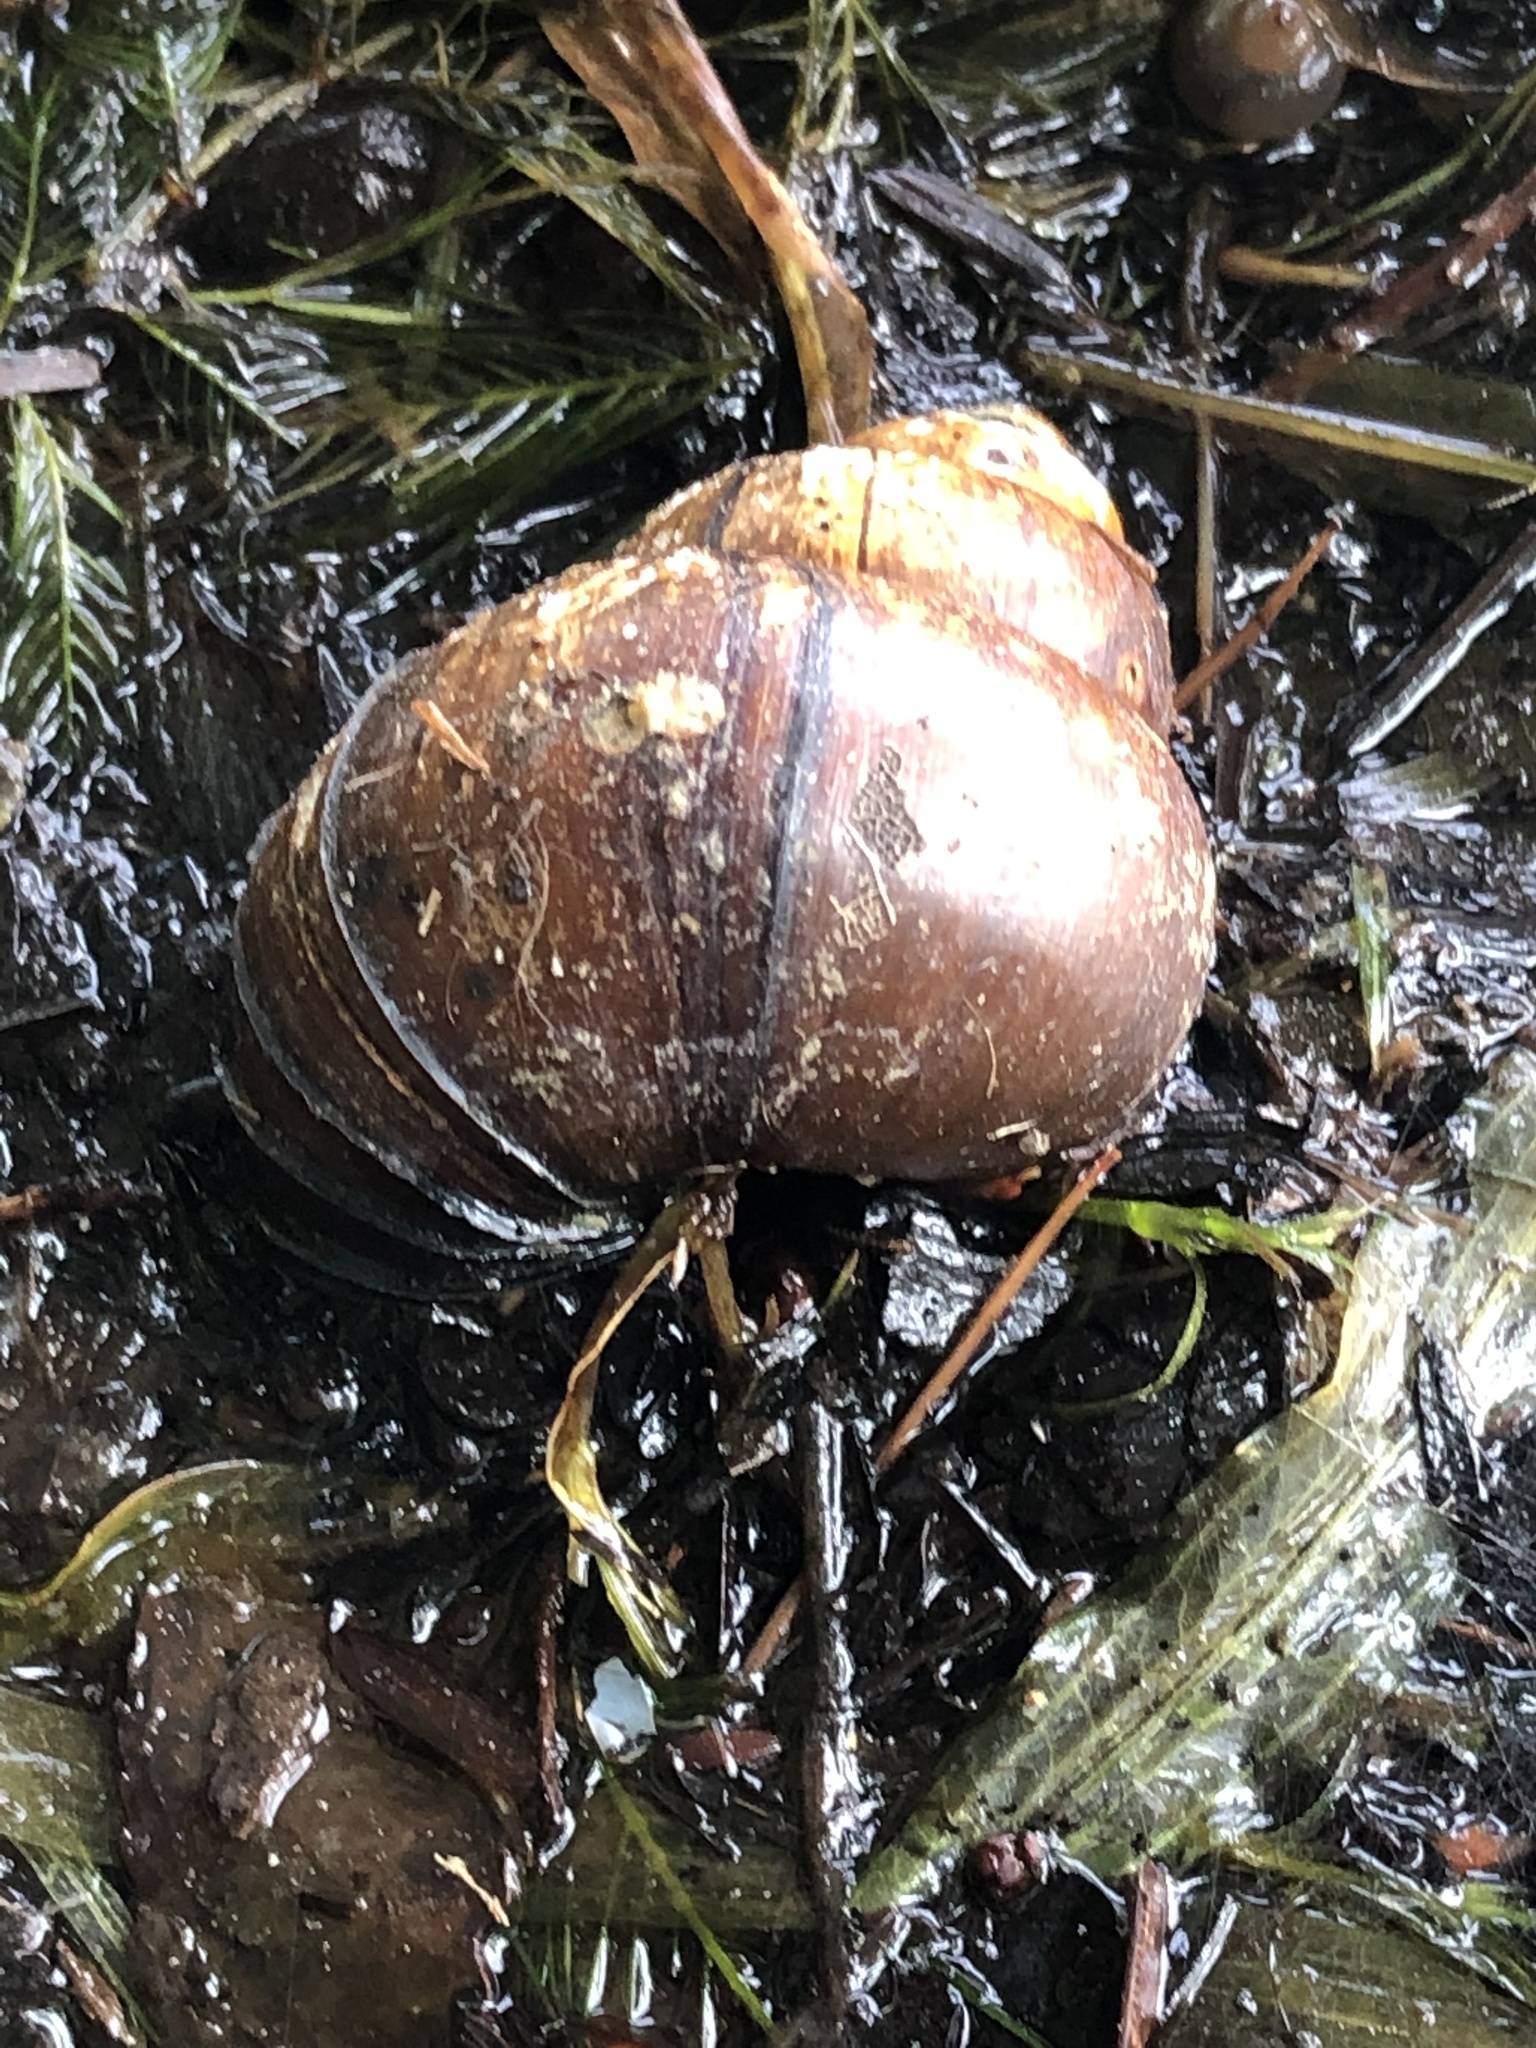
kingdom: Animalia
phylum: Mollusca
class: Gastropoda
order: Architaenioglossa
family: Viviparidae
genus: Cipangopaludina
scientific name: Cipangopaludina chinensis
